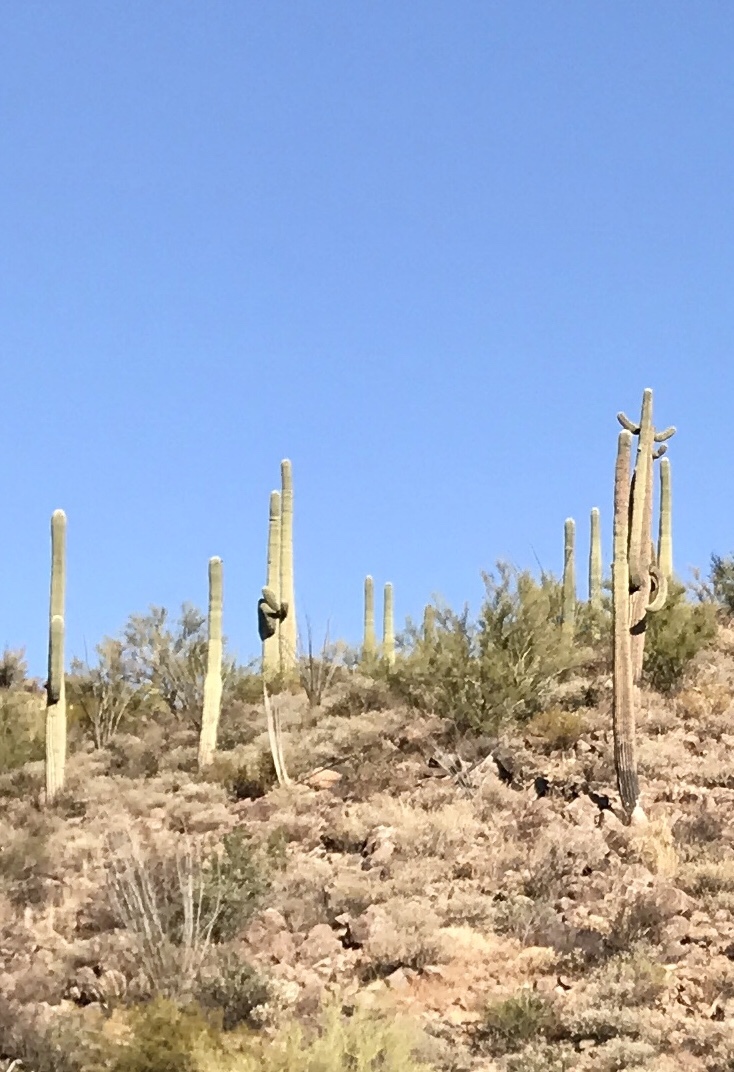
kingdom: Plantae
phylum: Tracheophyta
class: Magnoliopsida
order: Caryophyllales
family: Cactaceae
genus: Carnegiea
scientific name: Carnegiea gigantea
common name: Saguaro
